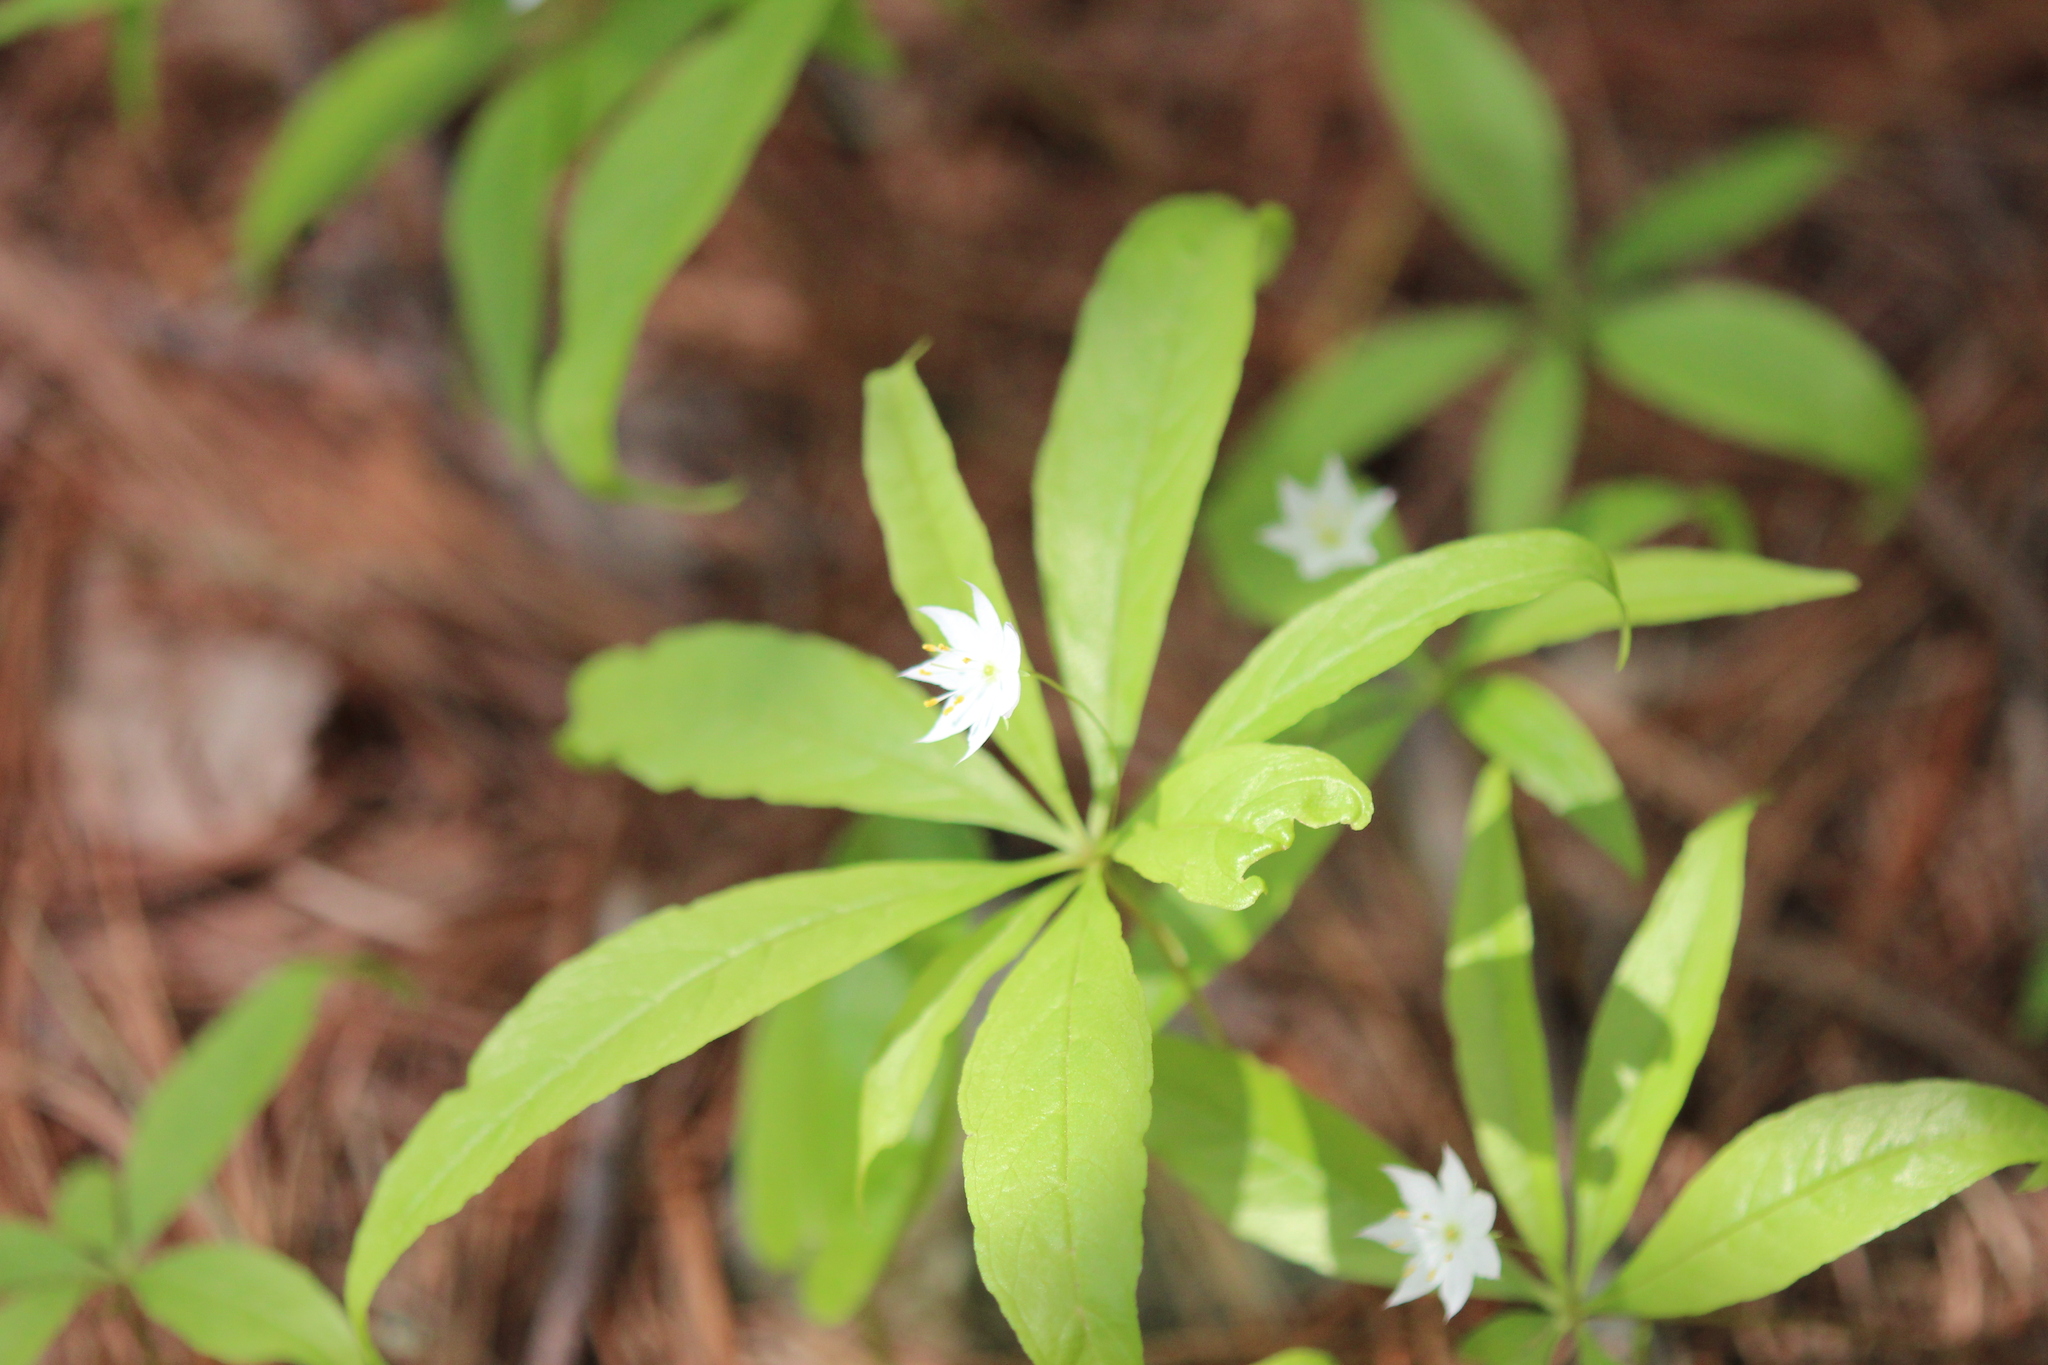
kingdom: Plantae
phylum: Tracheophyta
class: Magnoliopsida
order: Ericales
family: Primulaceae
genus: Lysimachia
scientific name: Lysimachia borealis
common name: American starflower
